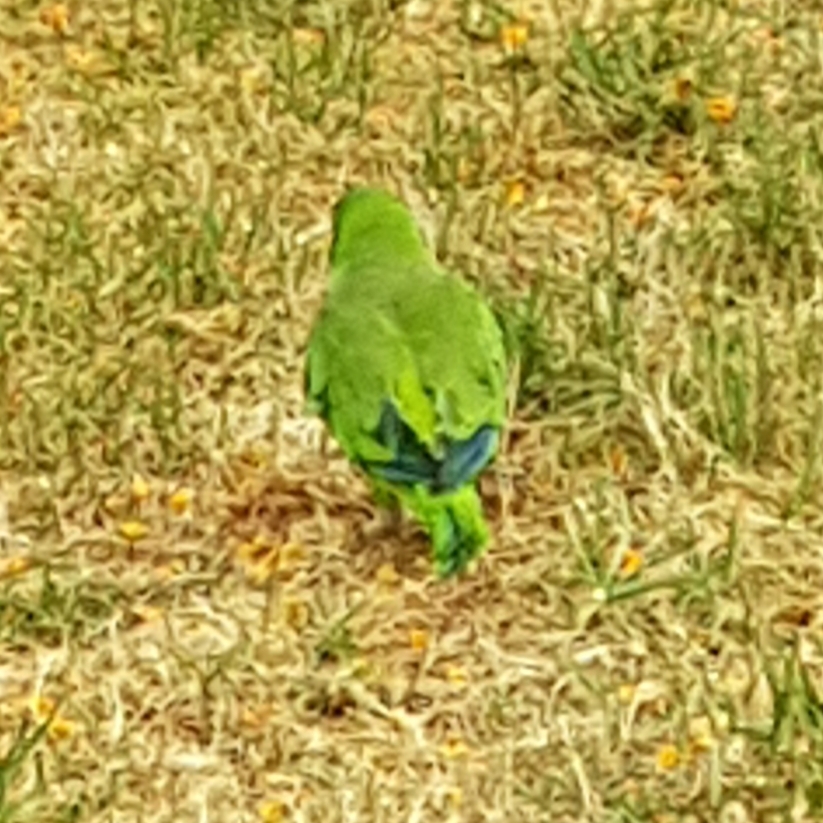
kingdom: Animalia
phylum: Chordata
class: Aves
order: Psittaciformes
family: Psittacidae
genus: Myiopsitta
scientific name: Myiopsitta monachus
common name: Monk parakeet
